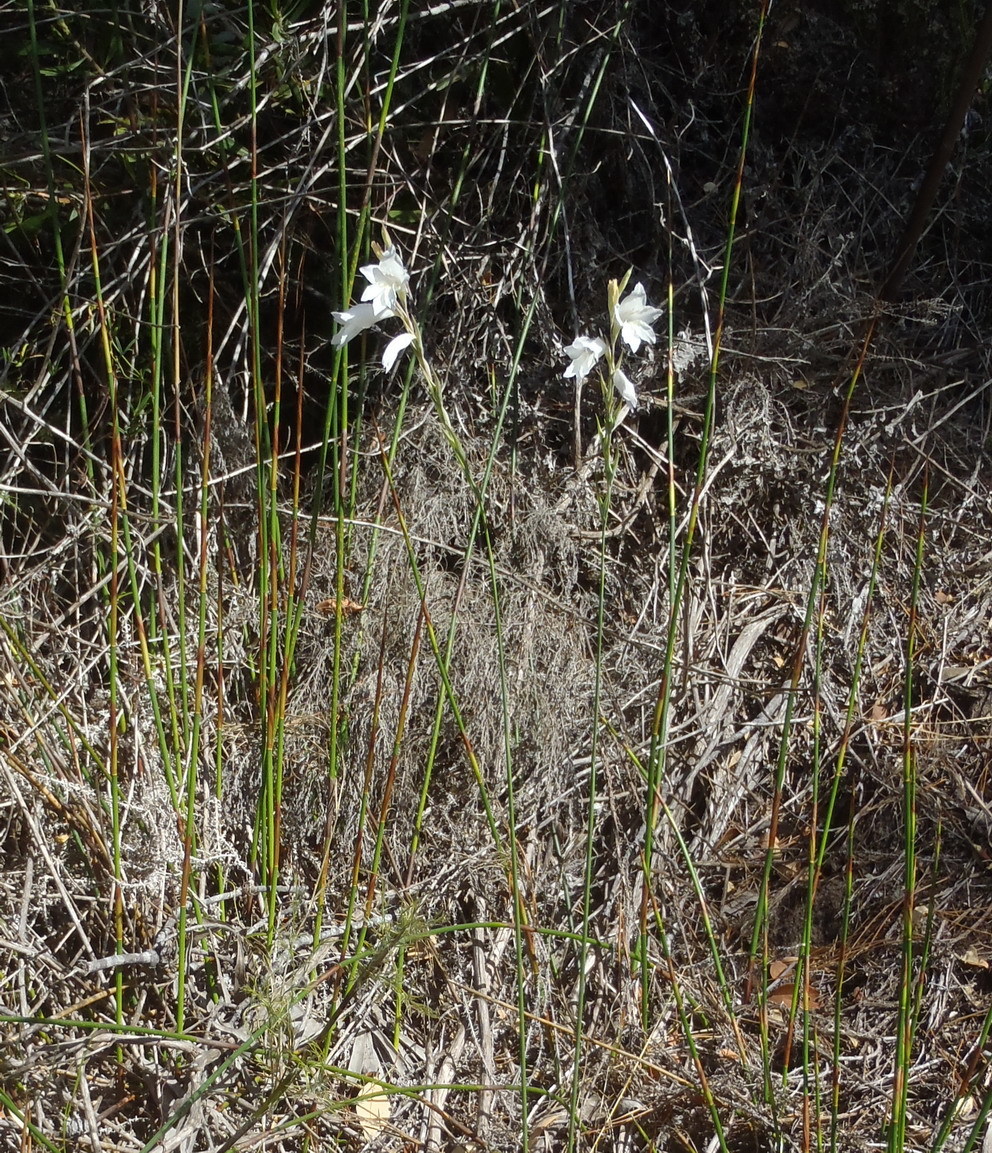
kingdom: Plantae
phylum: Tracheophyta
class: Liliopsida
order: Asparagales
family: Iridaceae
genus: Gladiolus
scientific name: Gladiolus vaginatus
